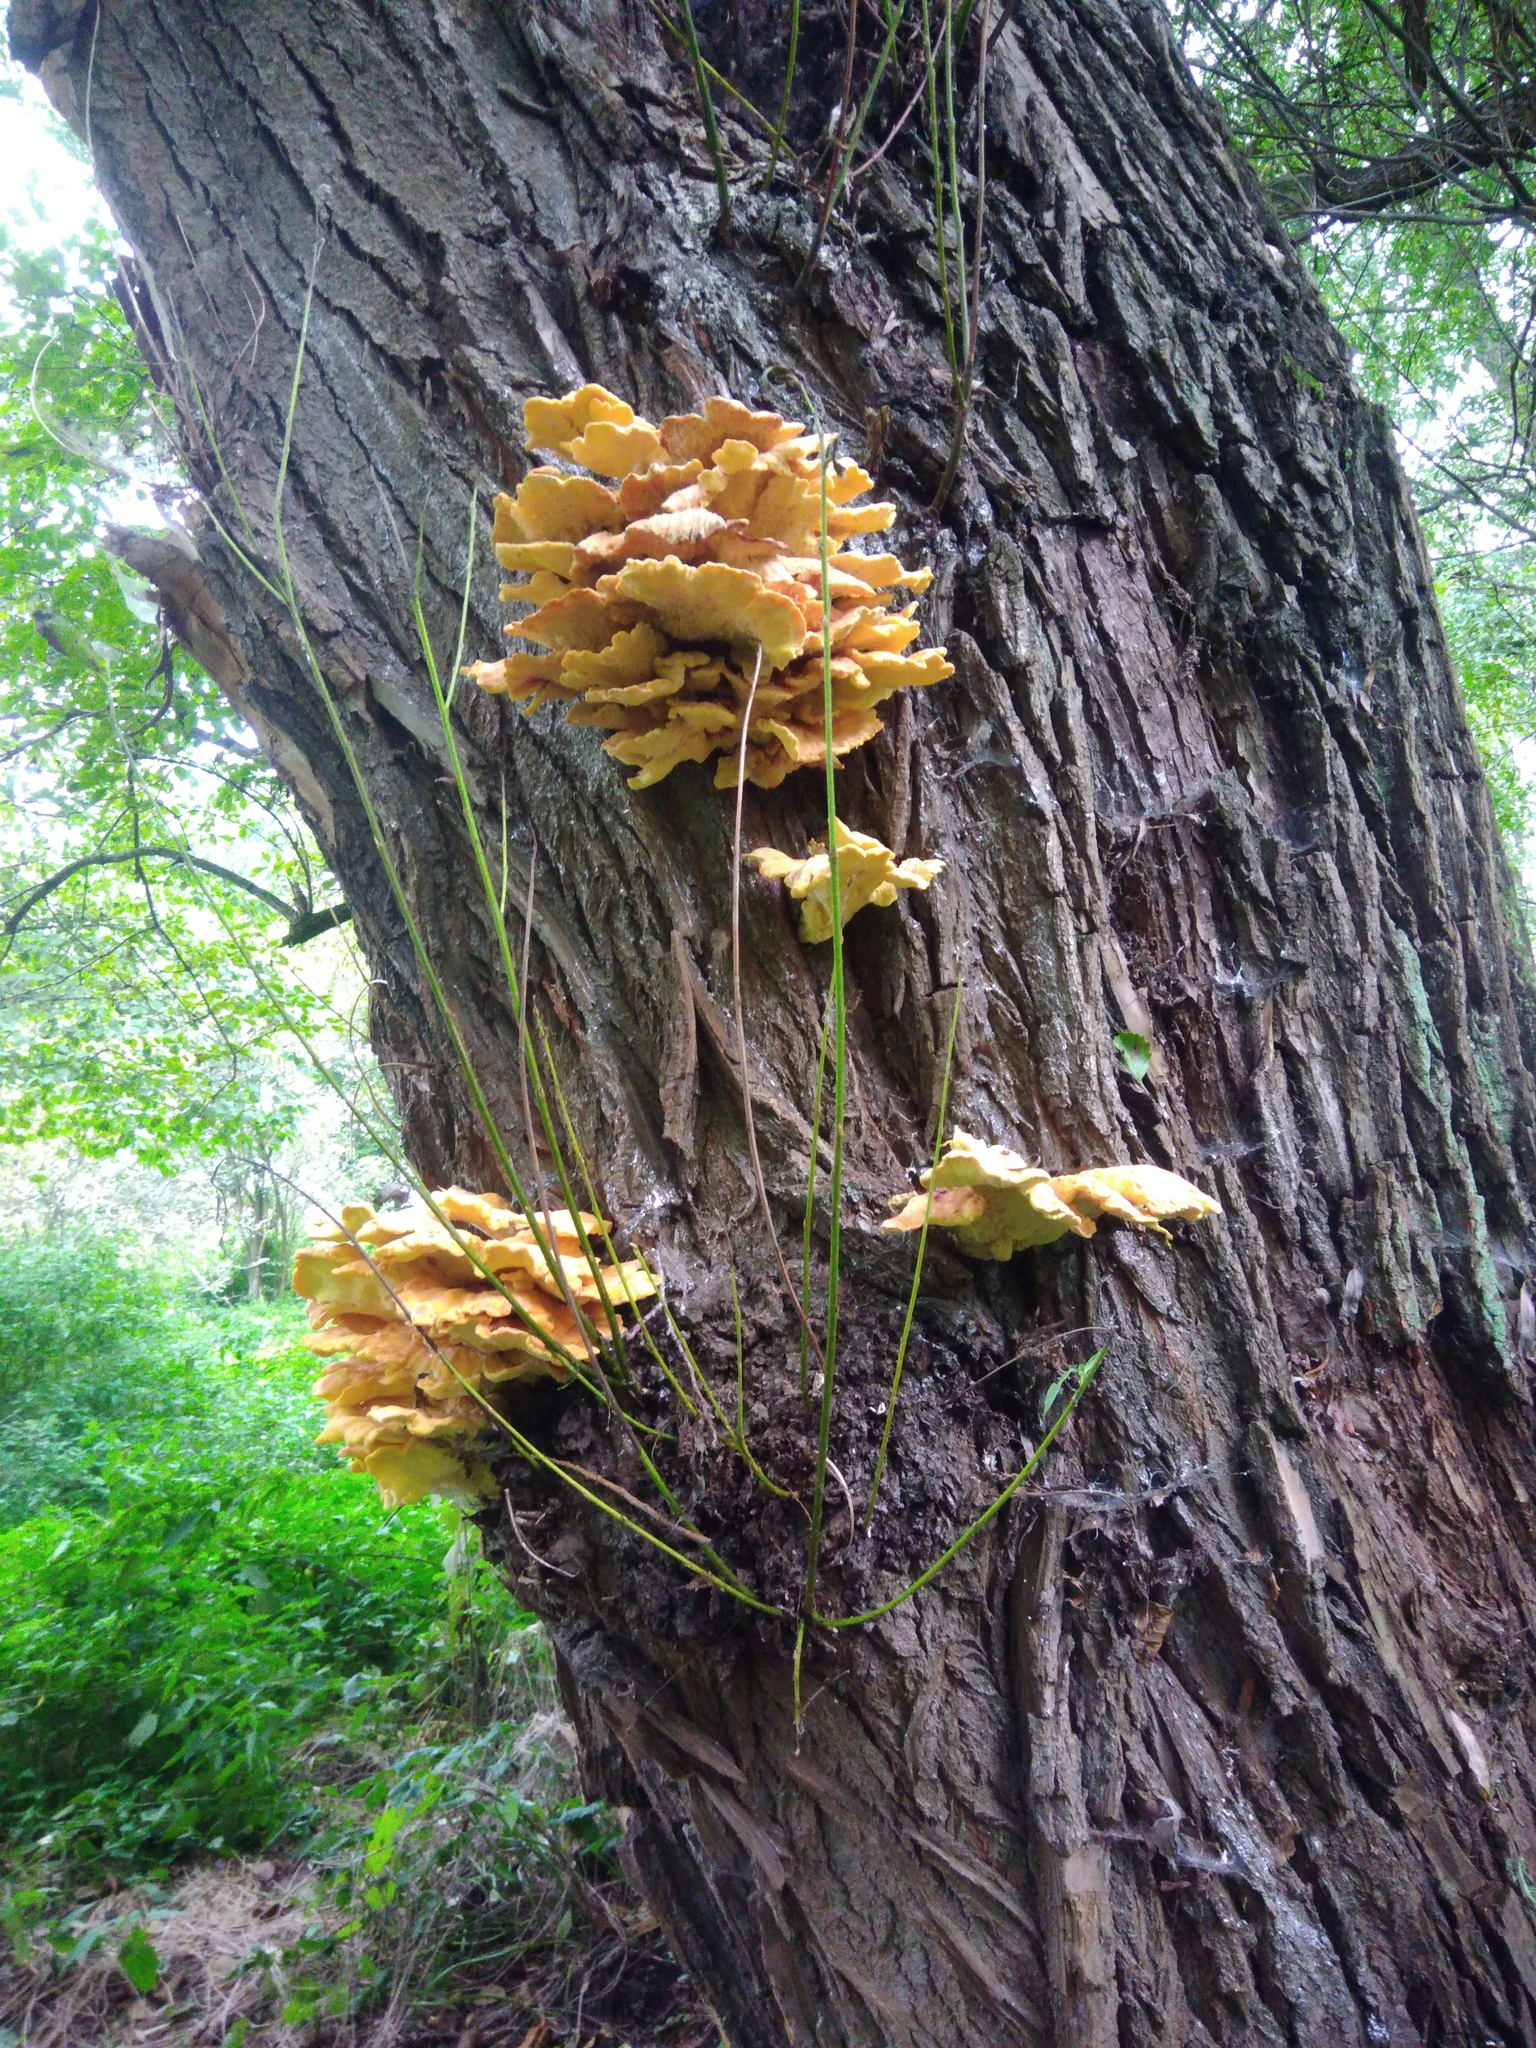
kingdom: Fungi
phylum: Basidiomycota
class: Agaricomycetes
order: Polyporales
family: Laetiporaceae
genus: Laetiporus
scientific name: Laetiporus sulphureus
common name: Chicken of the woods
